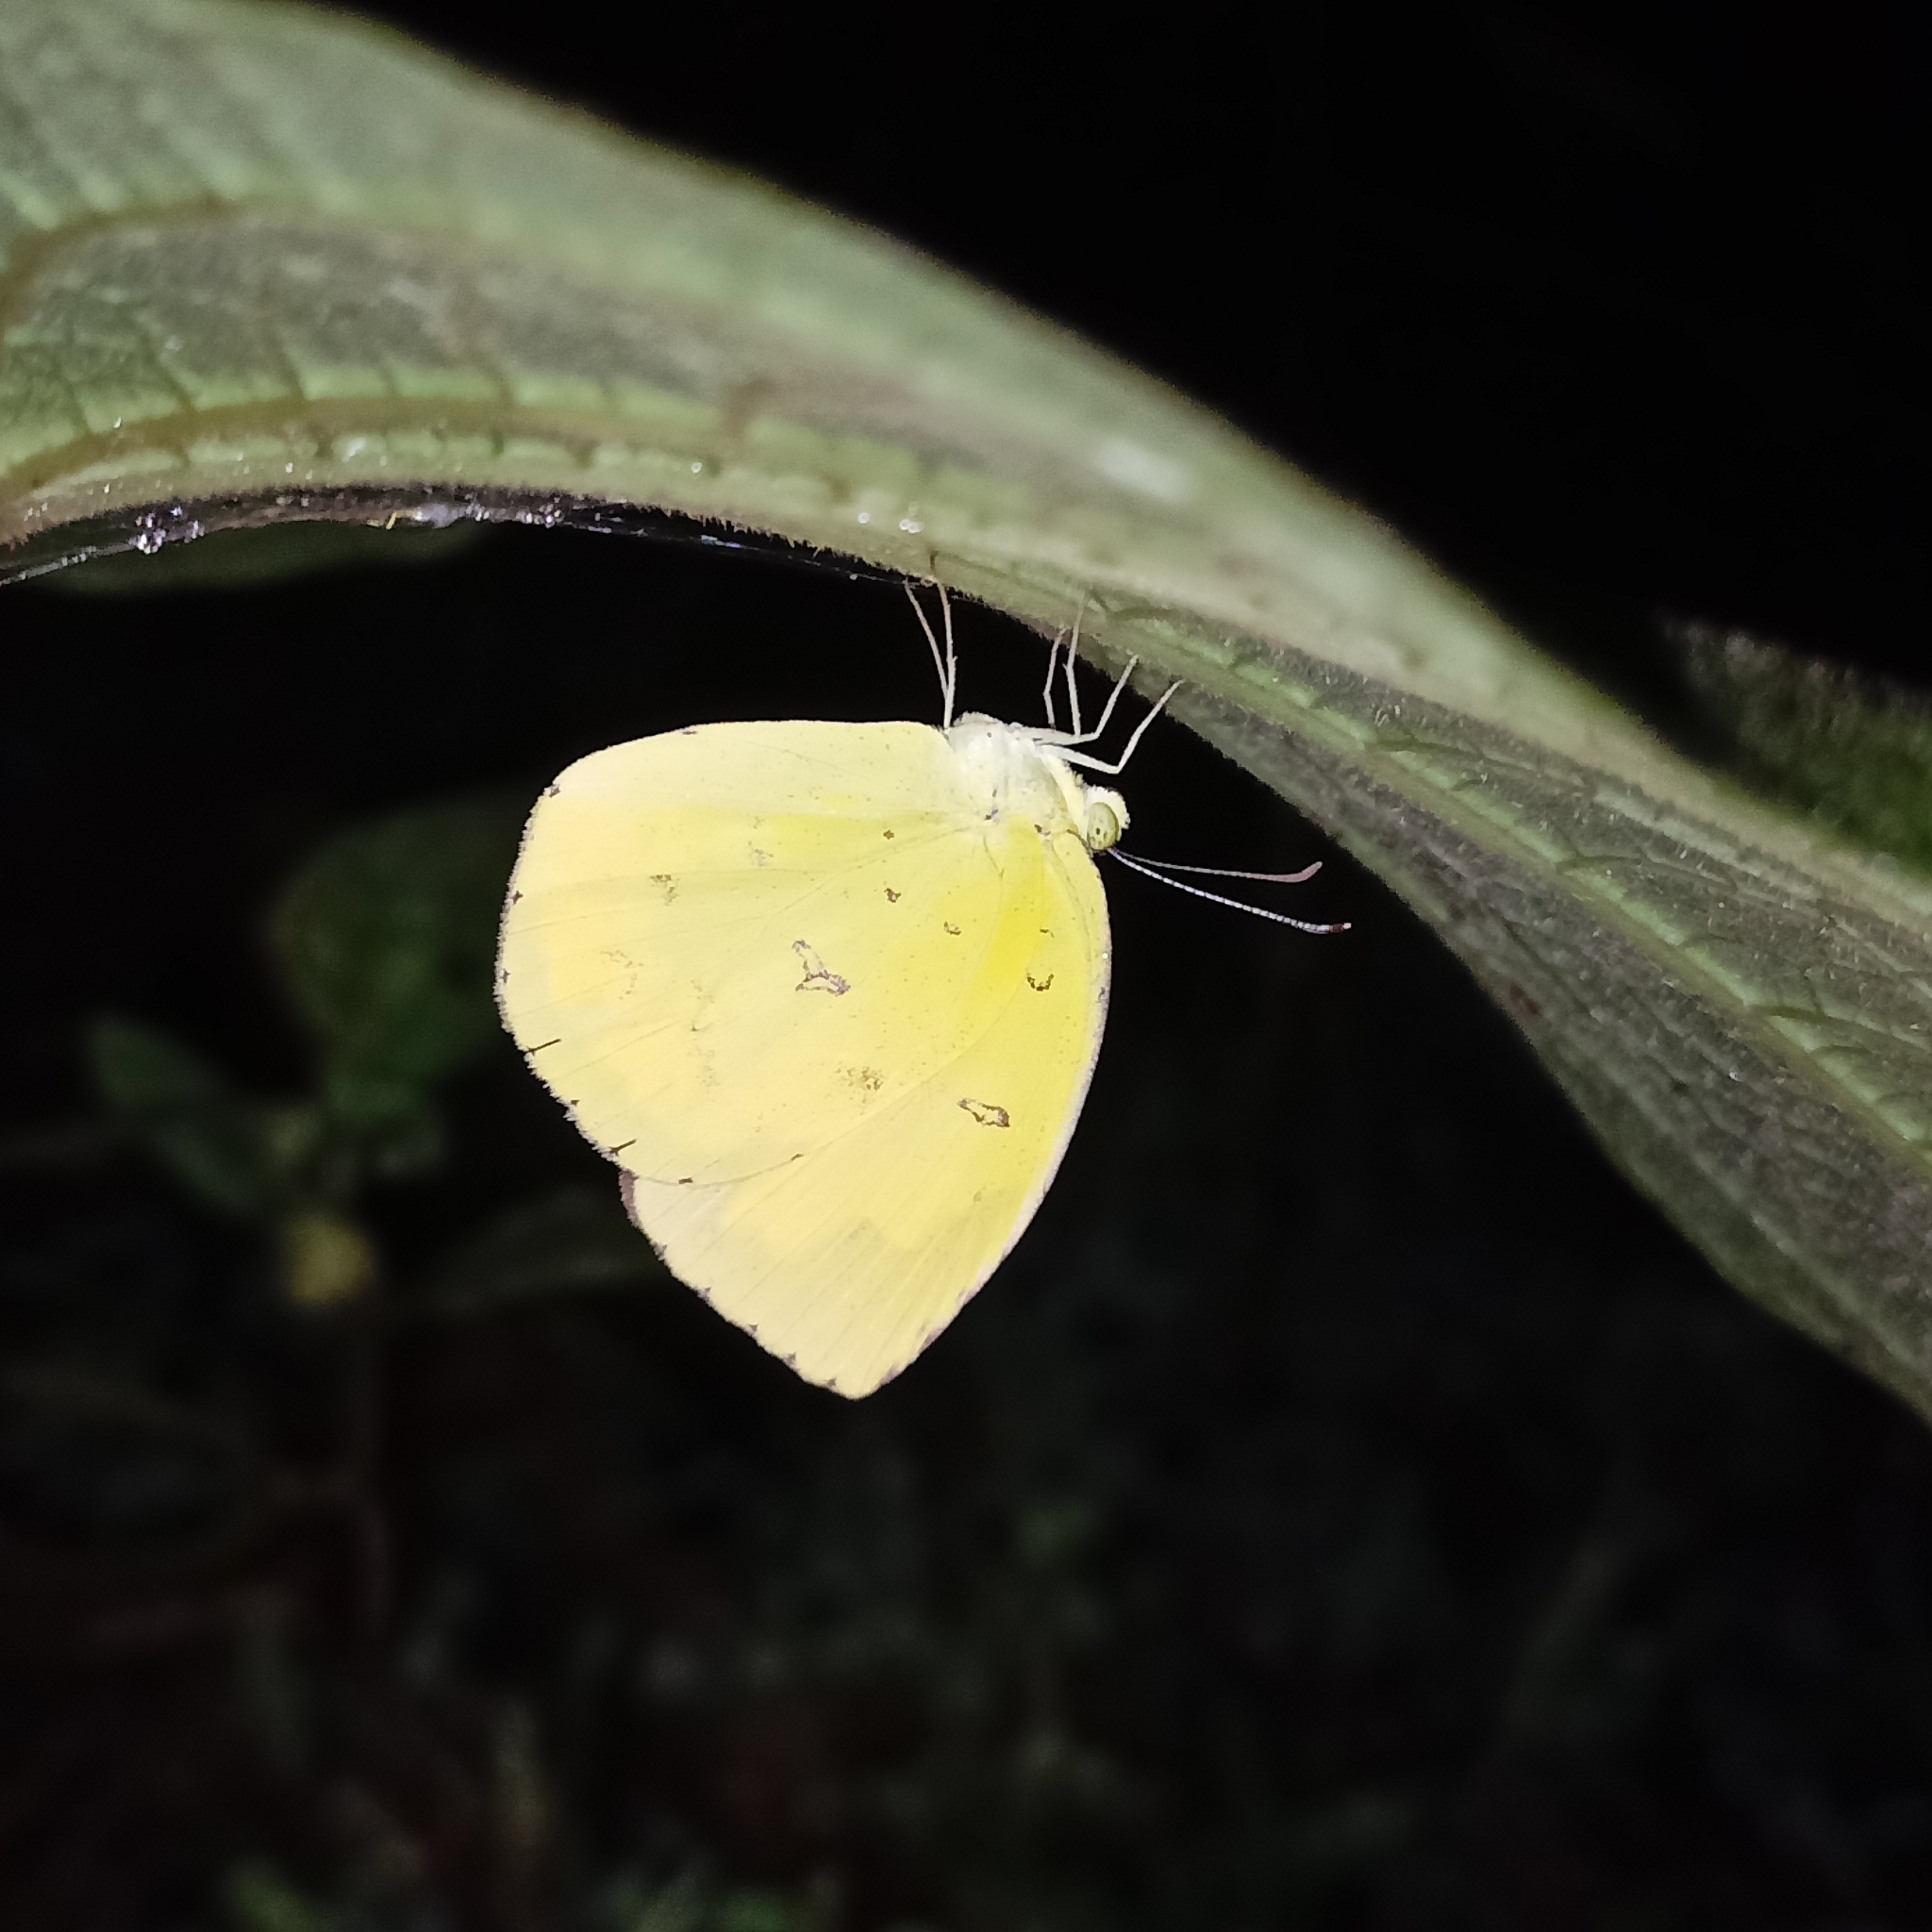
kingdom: Animalia
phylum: Arthropoda
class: Insecta
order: Lepidoptera
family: Pieridae
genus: Eurema
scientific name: Eurema hecabe
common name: Pale grass yellow
